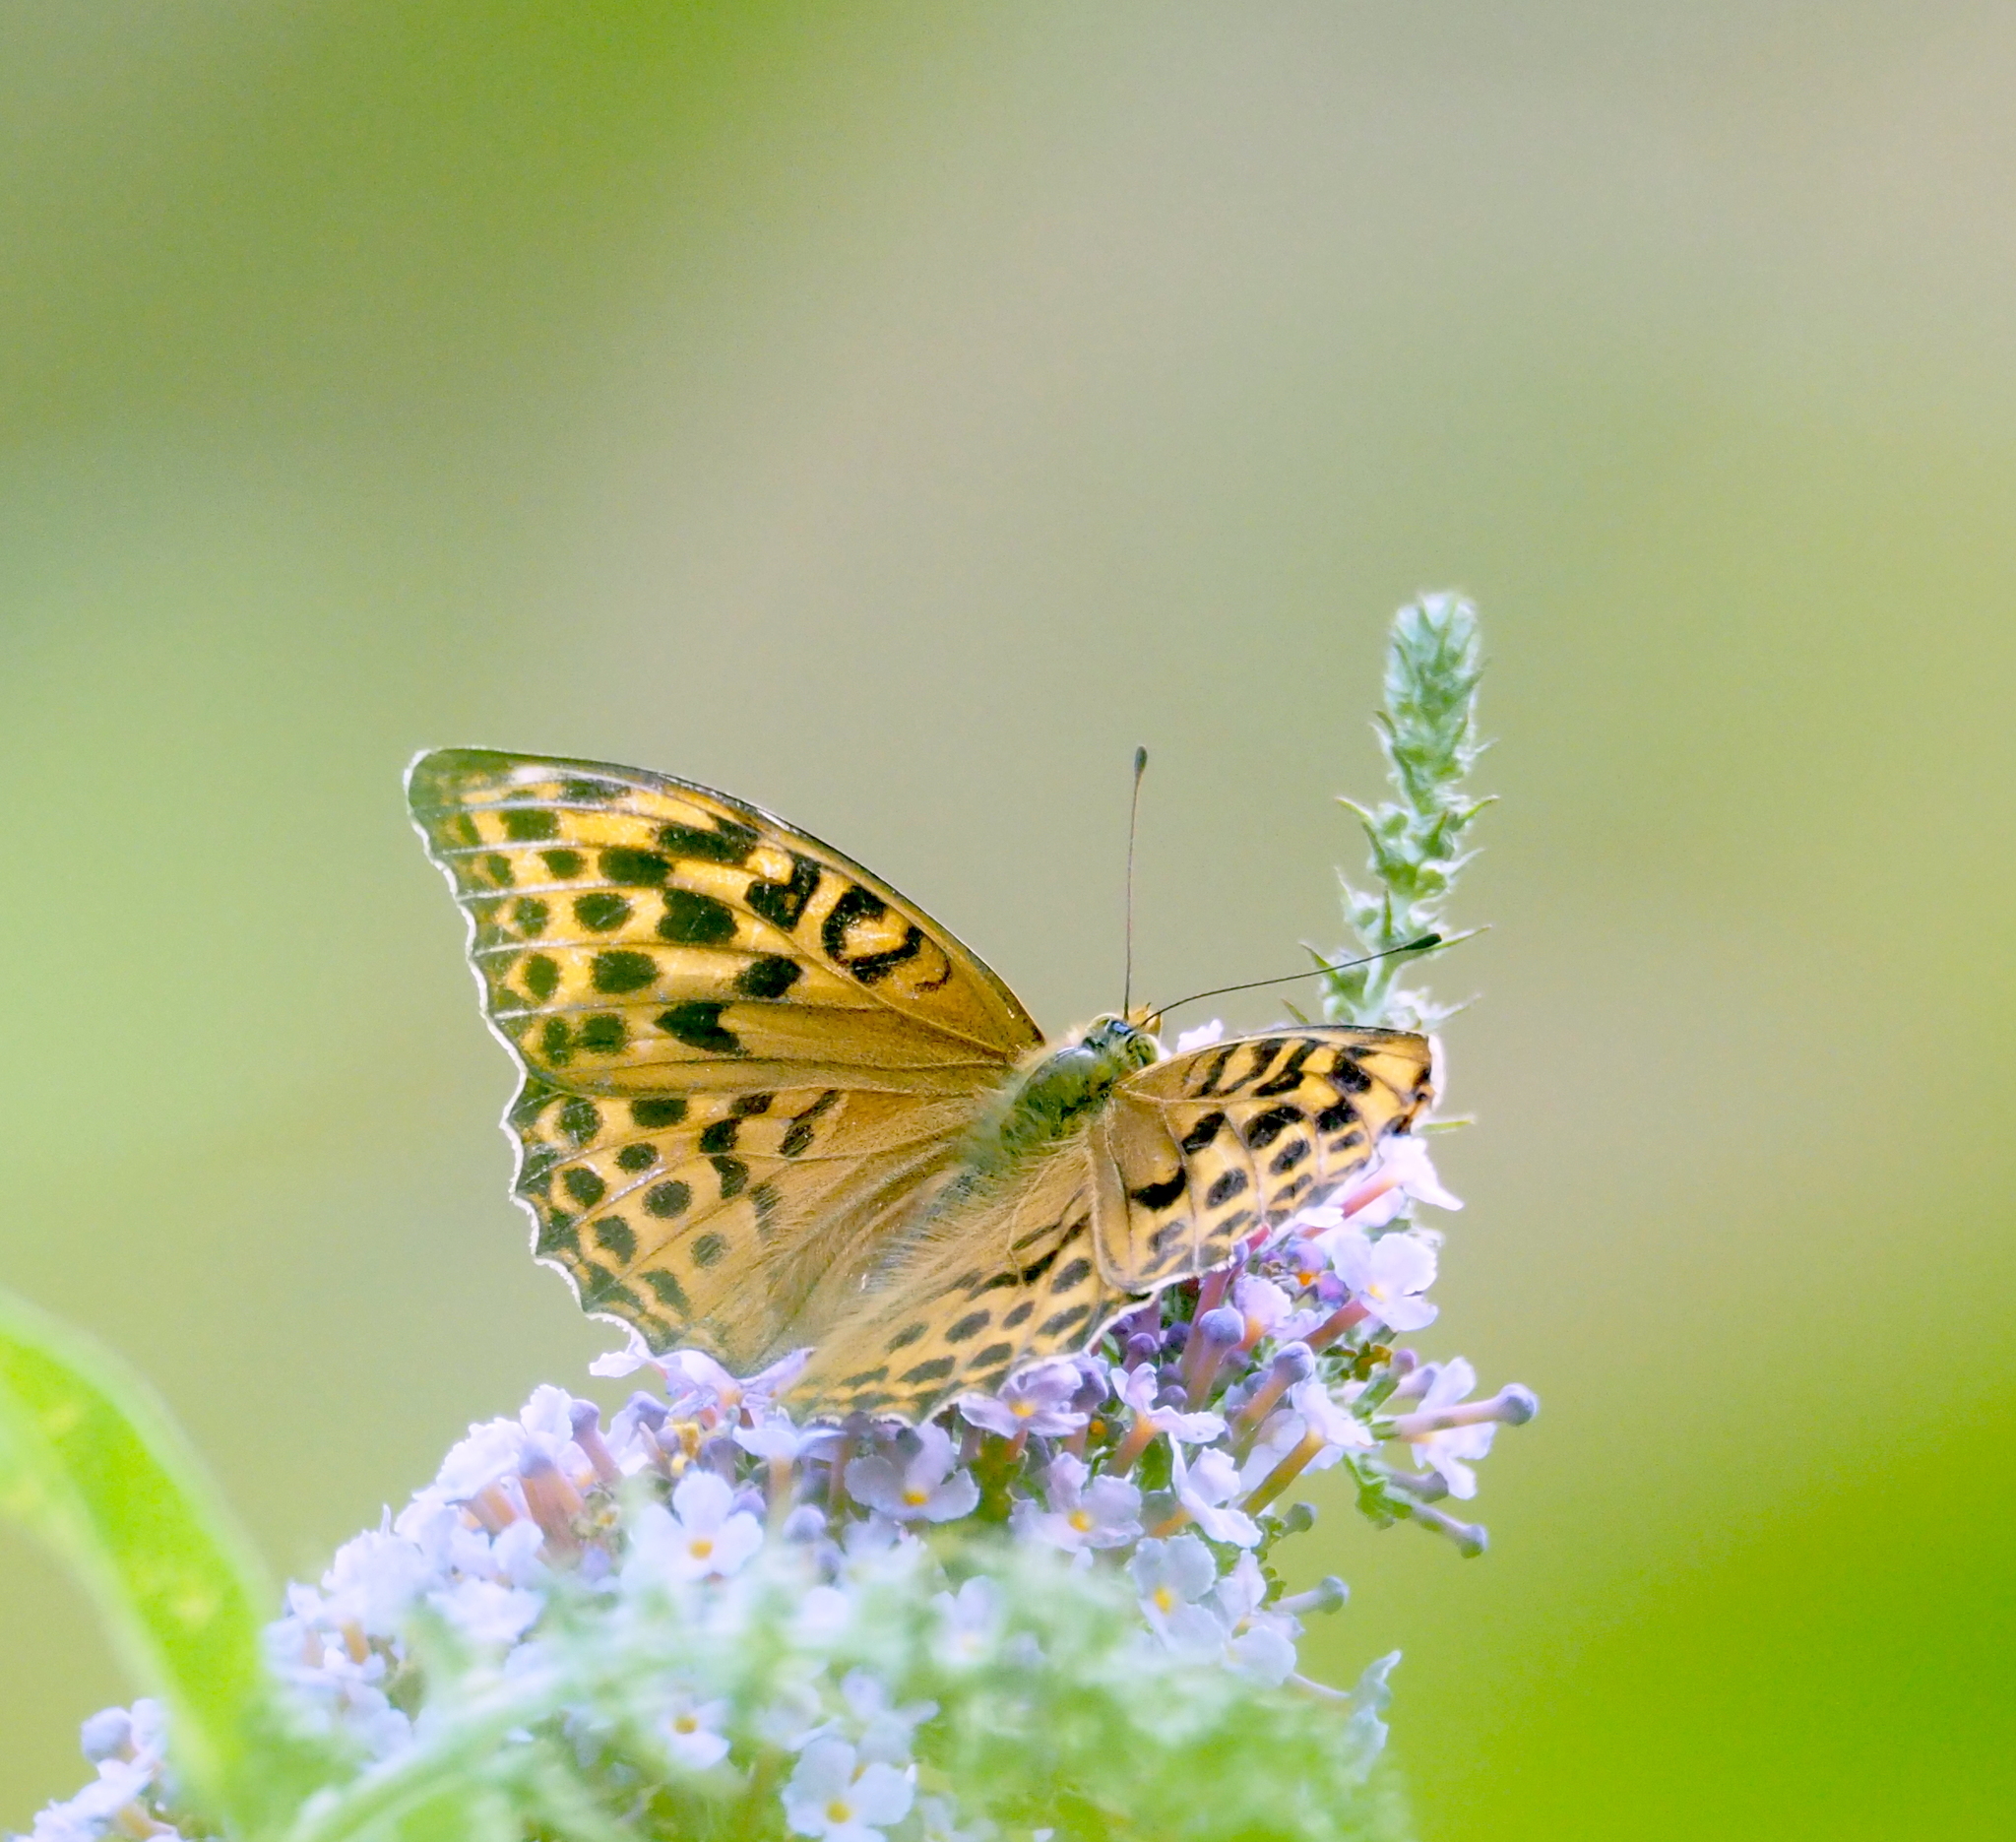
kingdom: Animalia
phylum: Arthropoda
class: Insecta
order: Lepidoptera
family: Nymphalidae
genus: Argynnis
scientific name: Argynnis paphia
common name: Silver-washed fritillary
